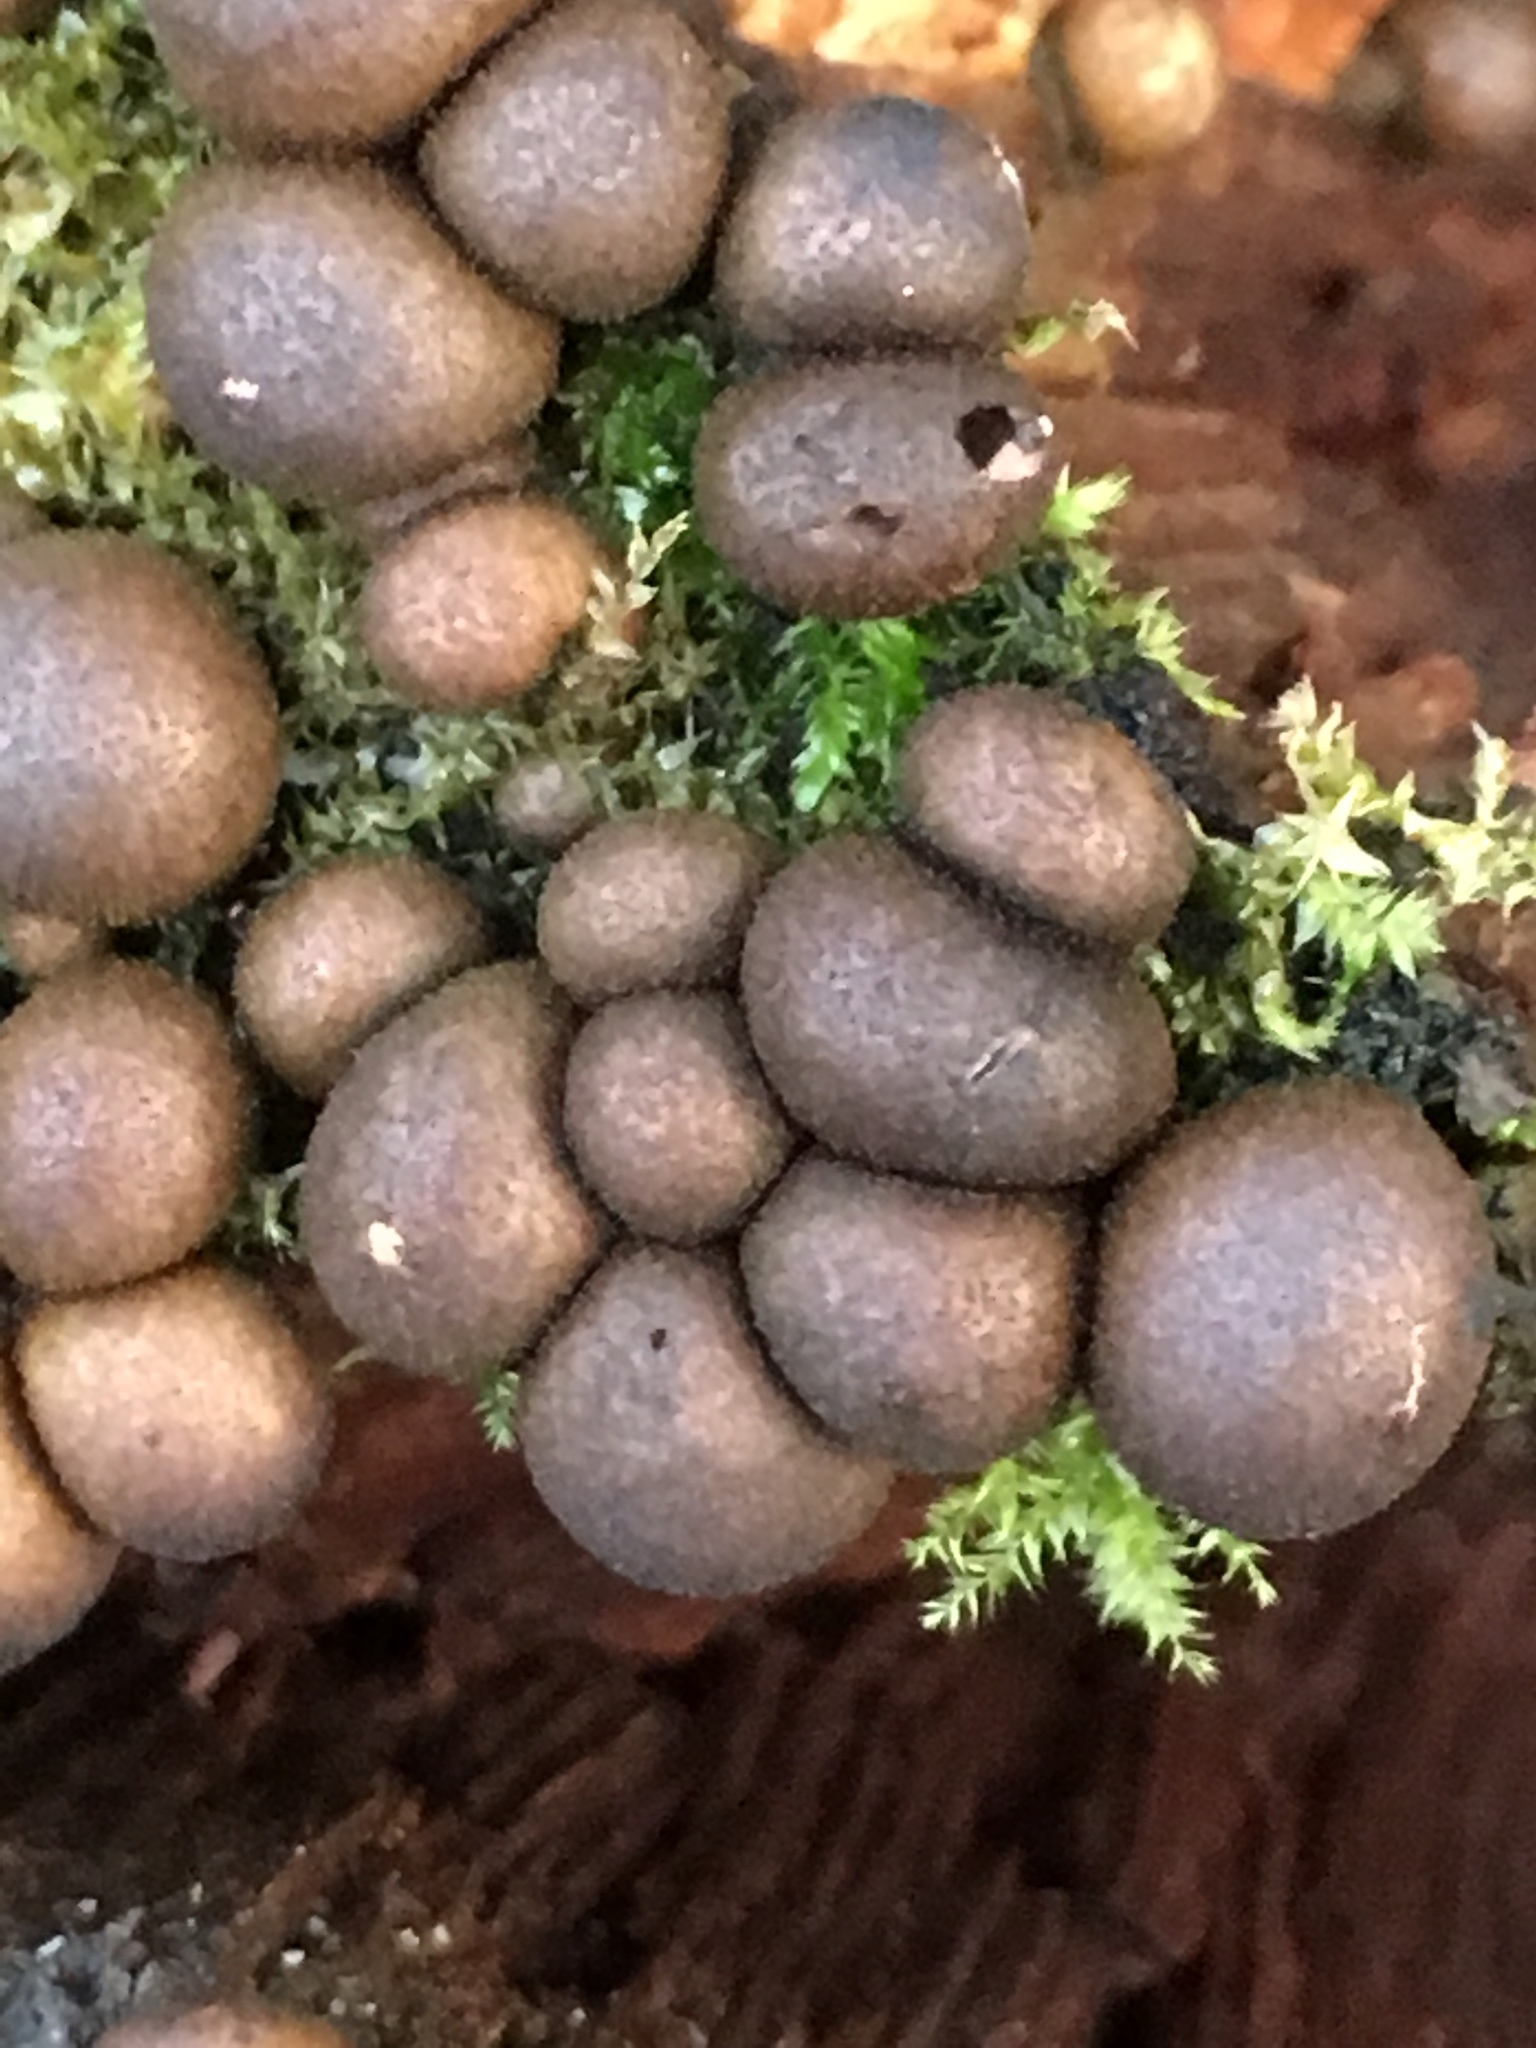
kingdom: Protozoa
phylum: Mycetozoa
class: Myxomycetes
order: Cribrariales
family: Tubiferaceae
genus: Lycogala
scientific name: Lycogala epidendrum
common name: Wolf's milk
